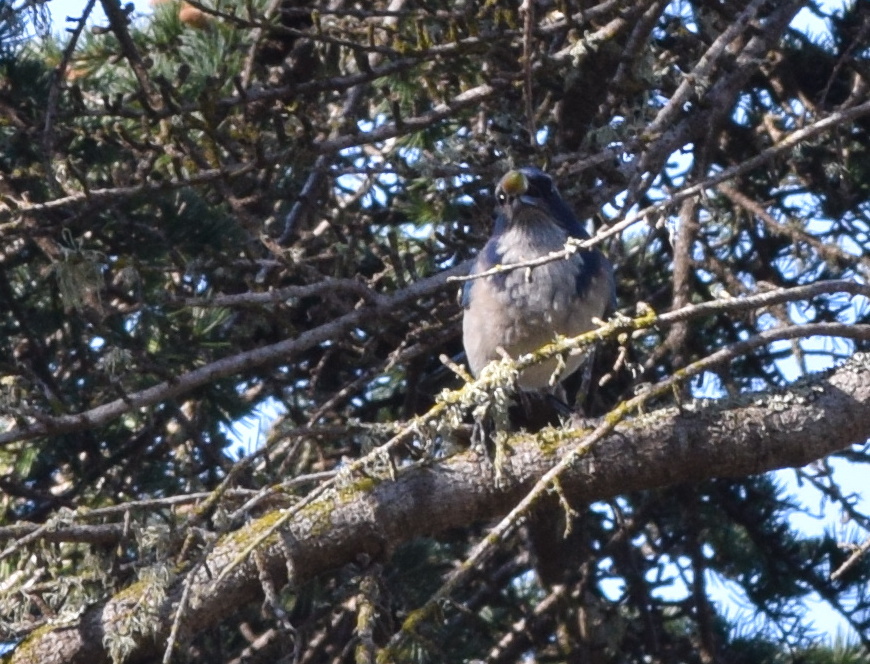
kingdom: Animalia
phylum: Chordata
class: Aves
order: Passeriformes
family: Corvidae
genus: Aphelocoma
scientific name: Aphelocoma californica
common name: California scrub-jay
